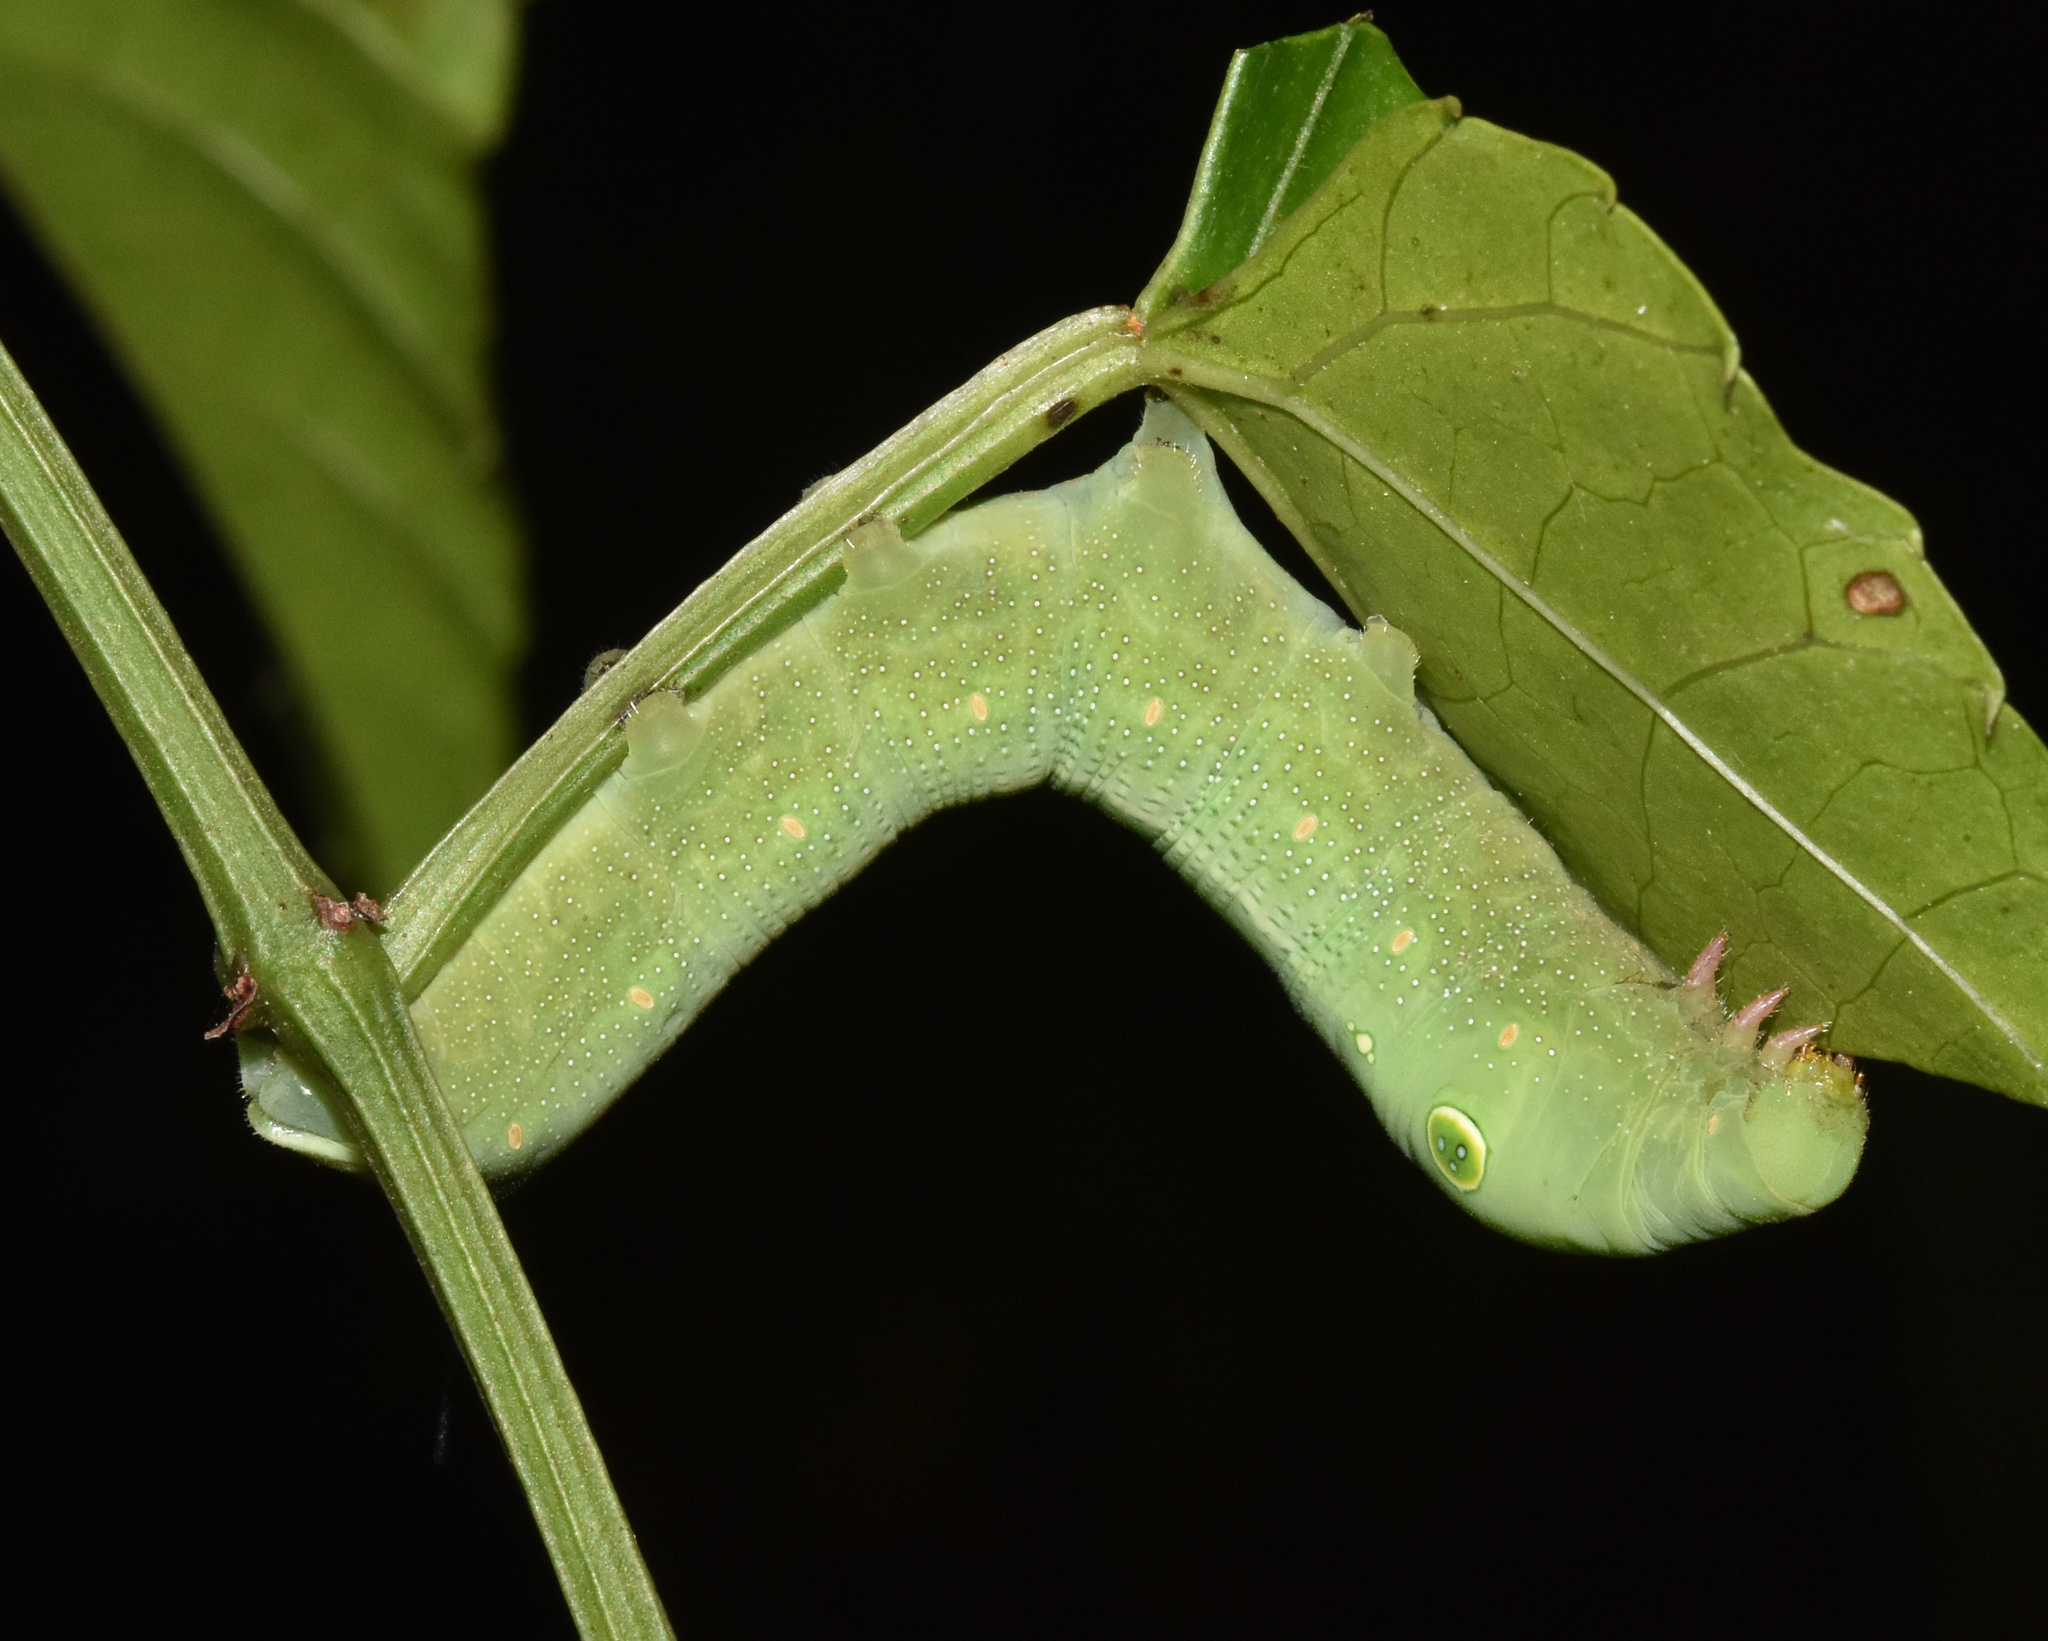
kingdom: Animalia
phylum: Arthropoda
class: Insecta
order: Lepidoptera
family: Sphingidae
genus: Hippotion
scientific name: Hippotion celerio
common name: Silver-striped hawk-moth
